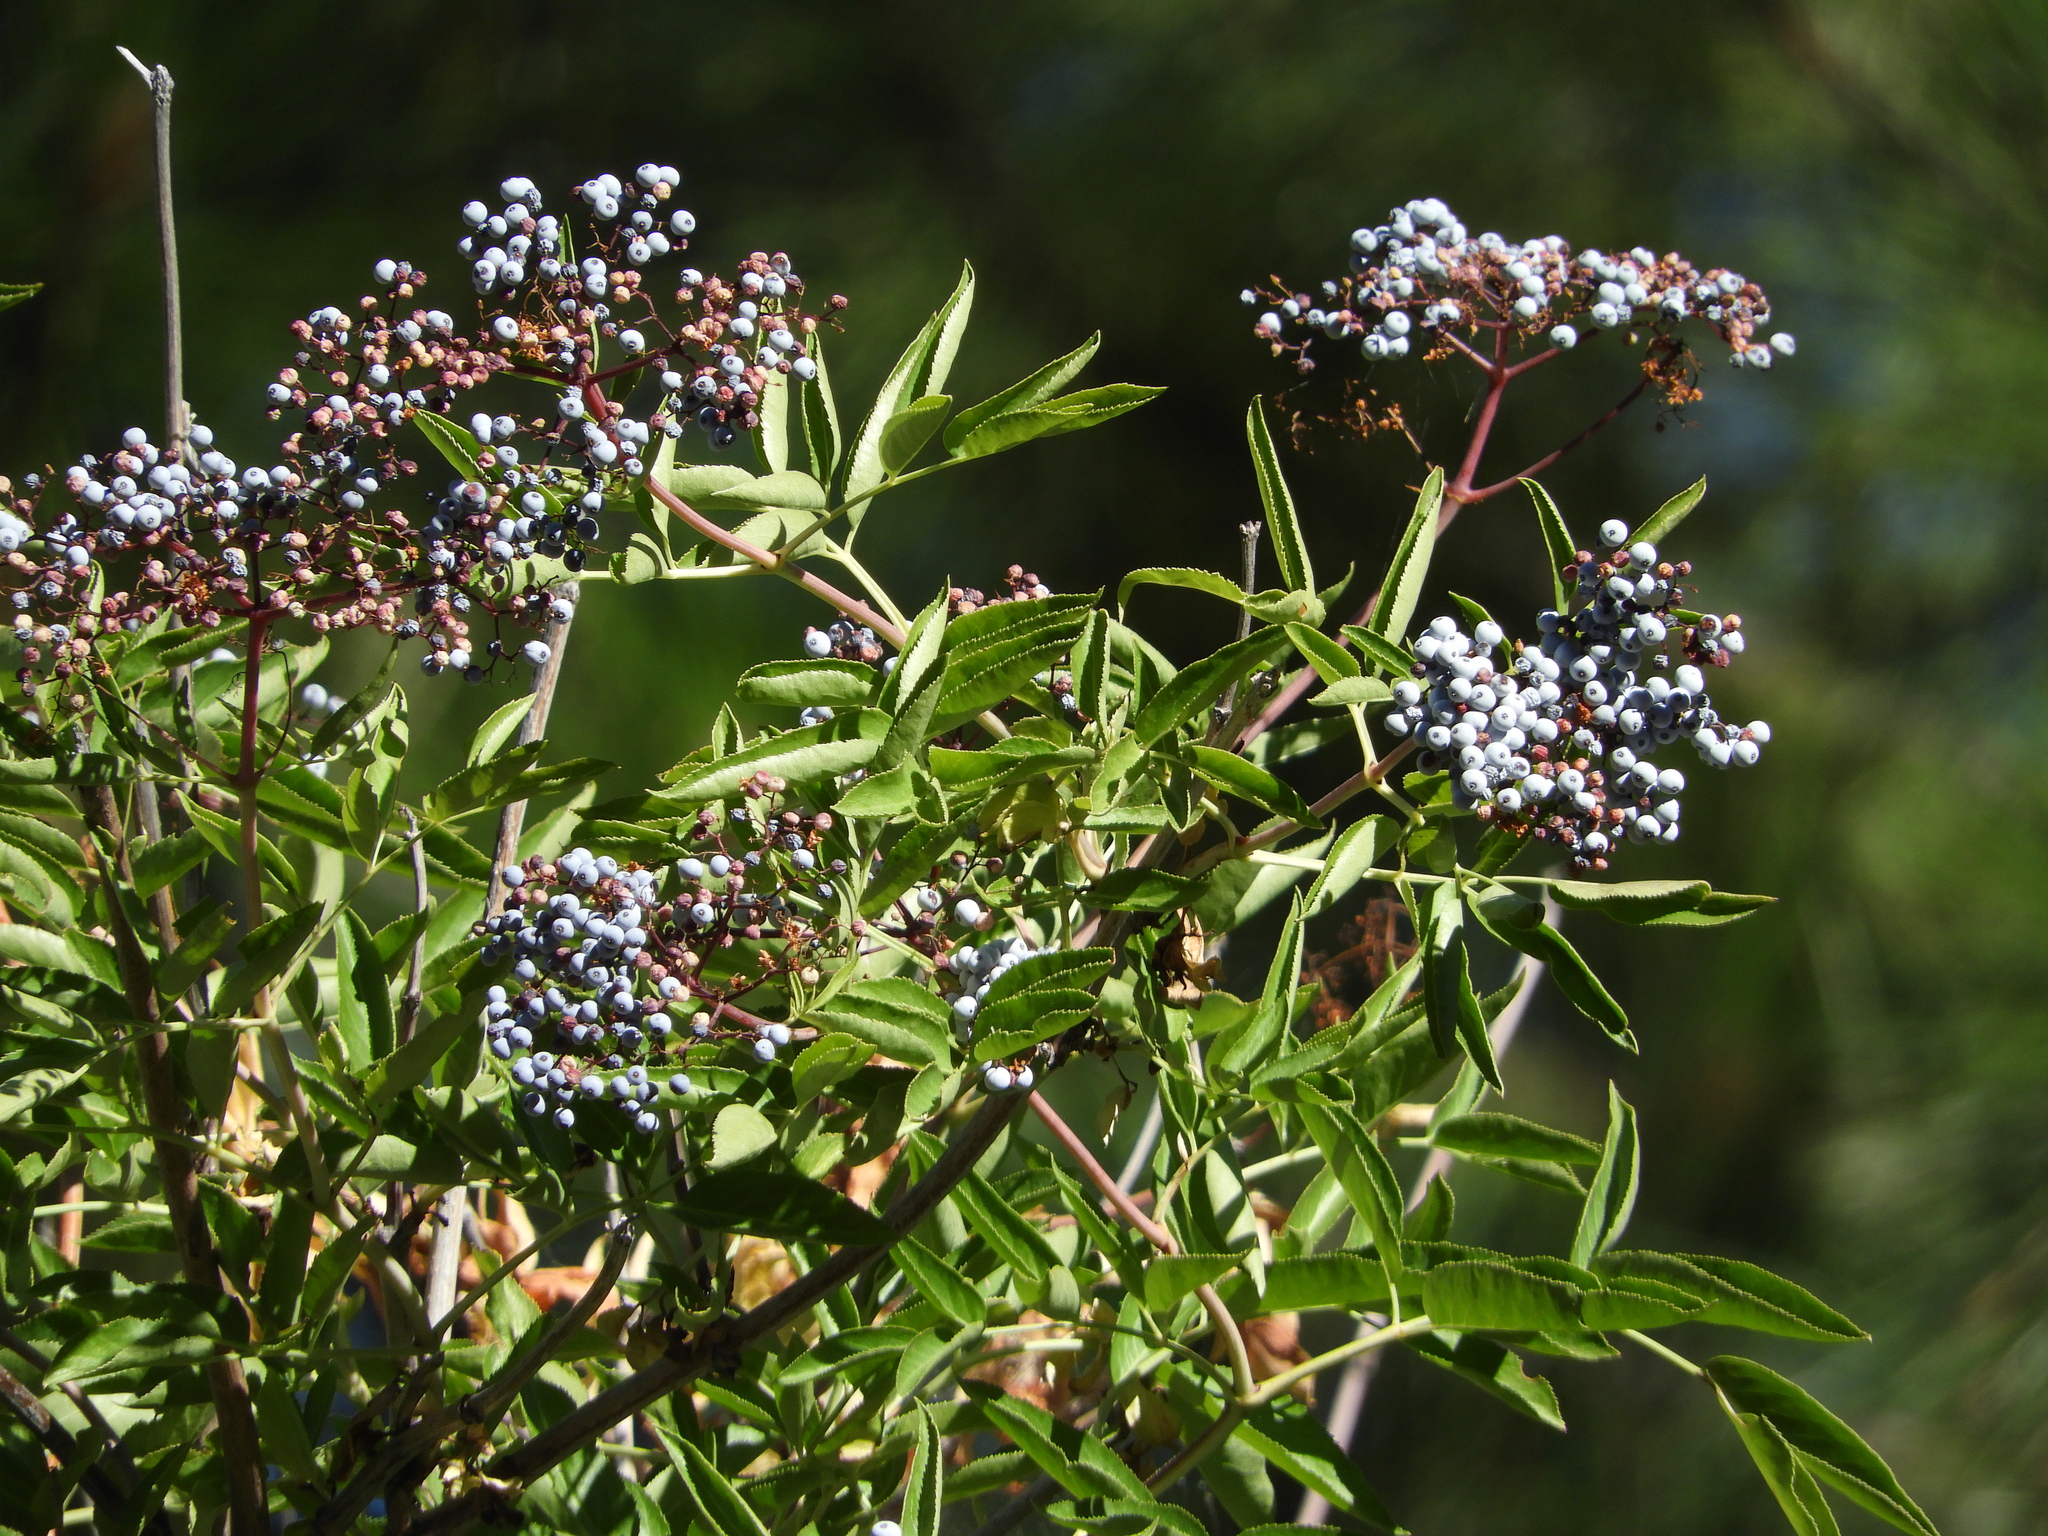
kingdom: Plantae
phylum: Tracheophyta
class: Magnoliopsida
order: Dipsacales
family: Viburnaceae
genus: Sambucus
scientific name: Sambucus cerulea
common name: Blue elder
